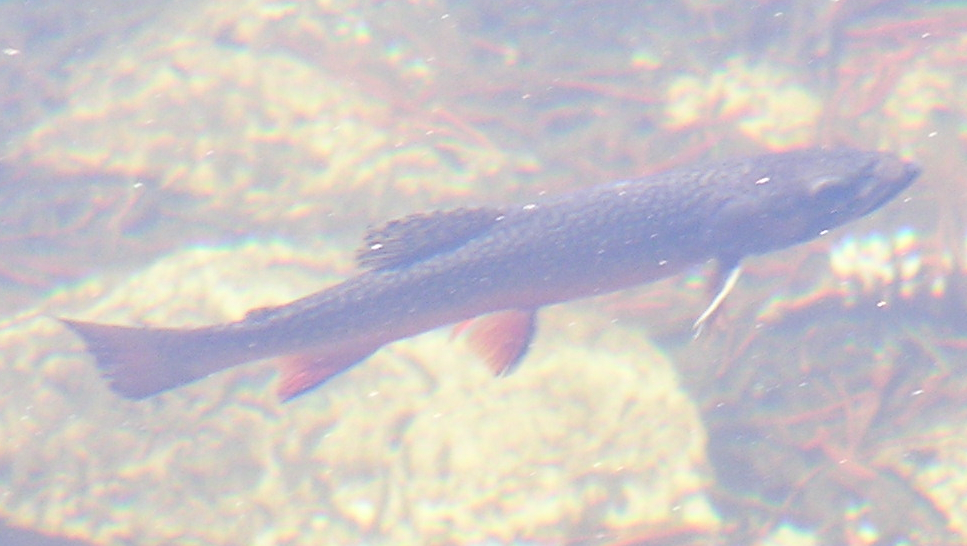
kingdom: Animalia
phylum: Chordata
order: Salmoniformes
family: Salmonidae
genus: Salvelinus
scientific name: Salvelinus fontinalis
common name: Brook trout
